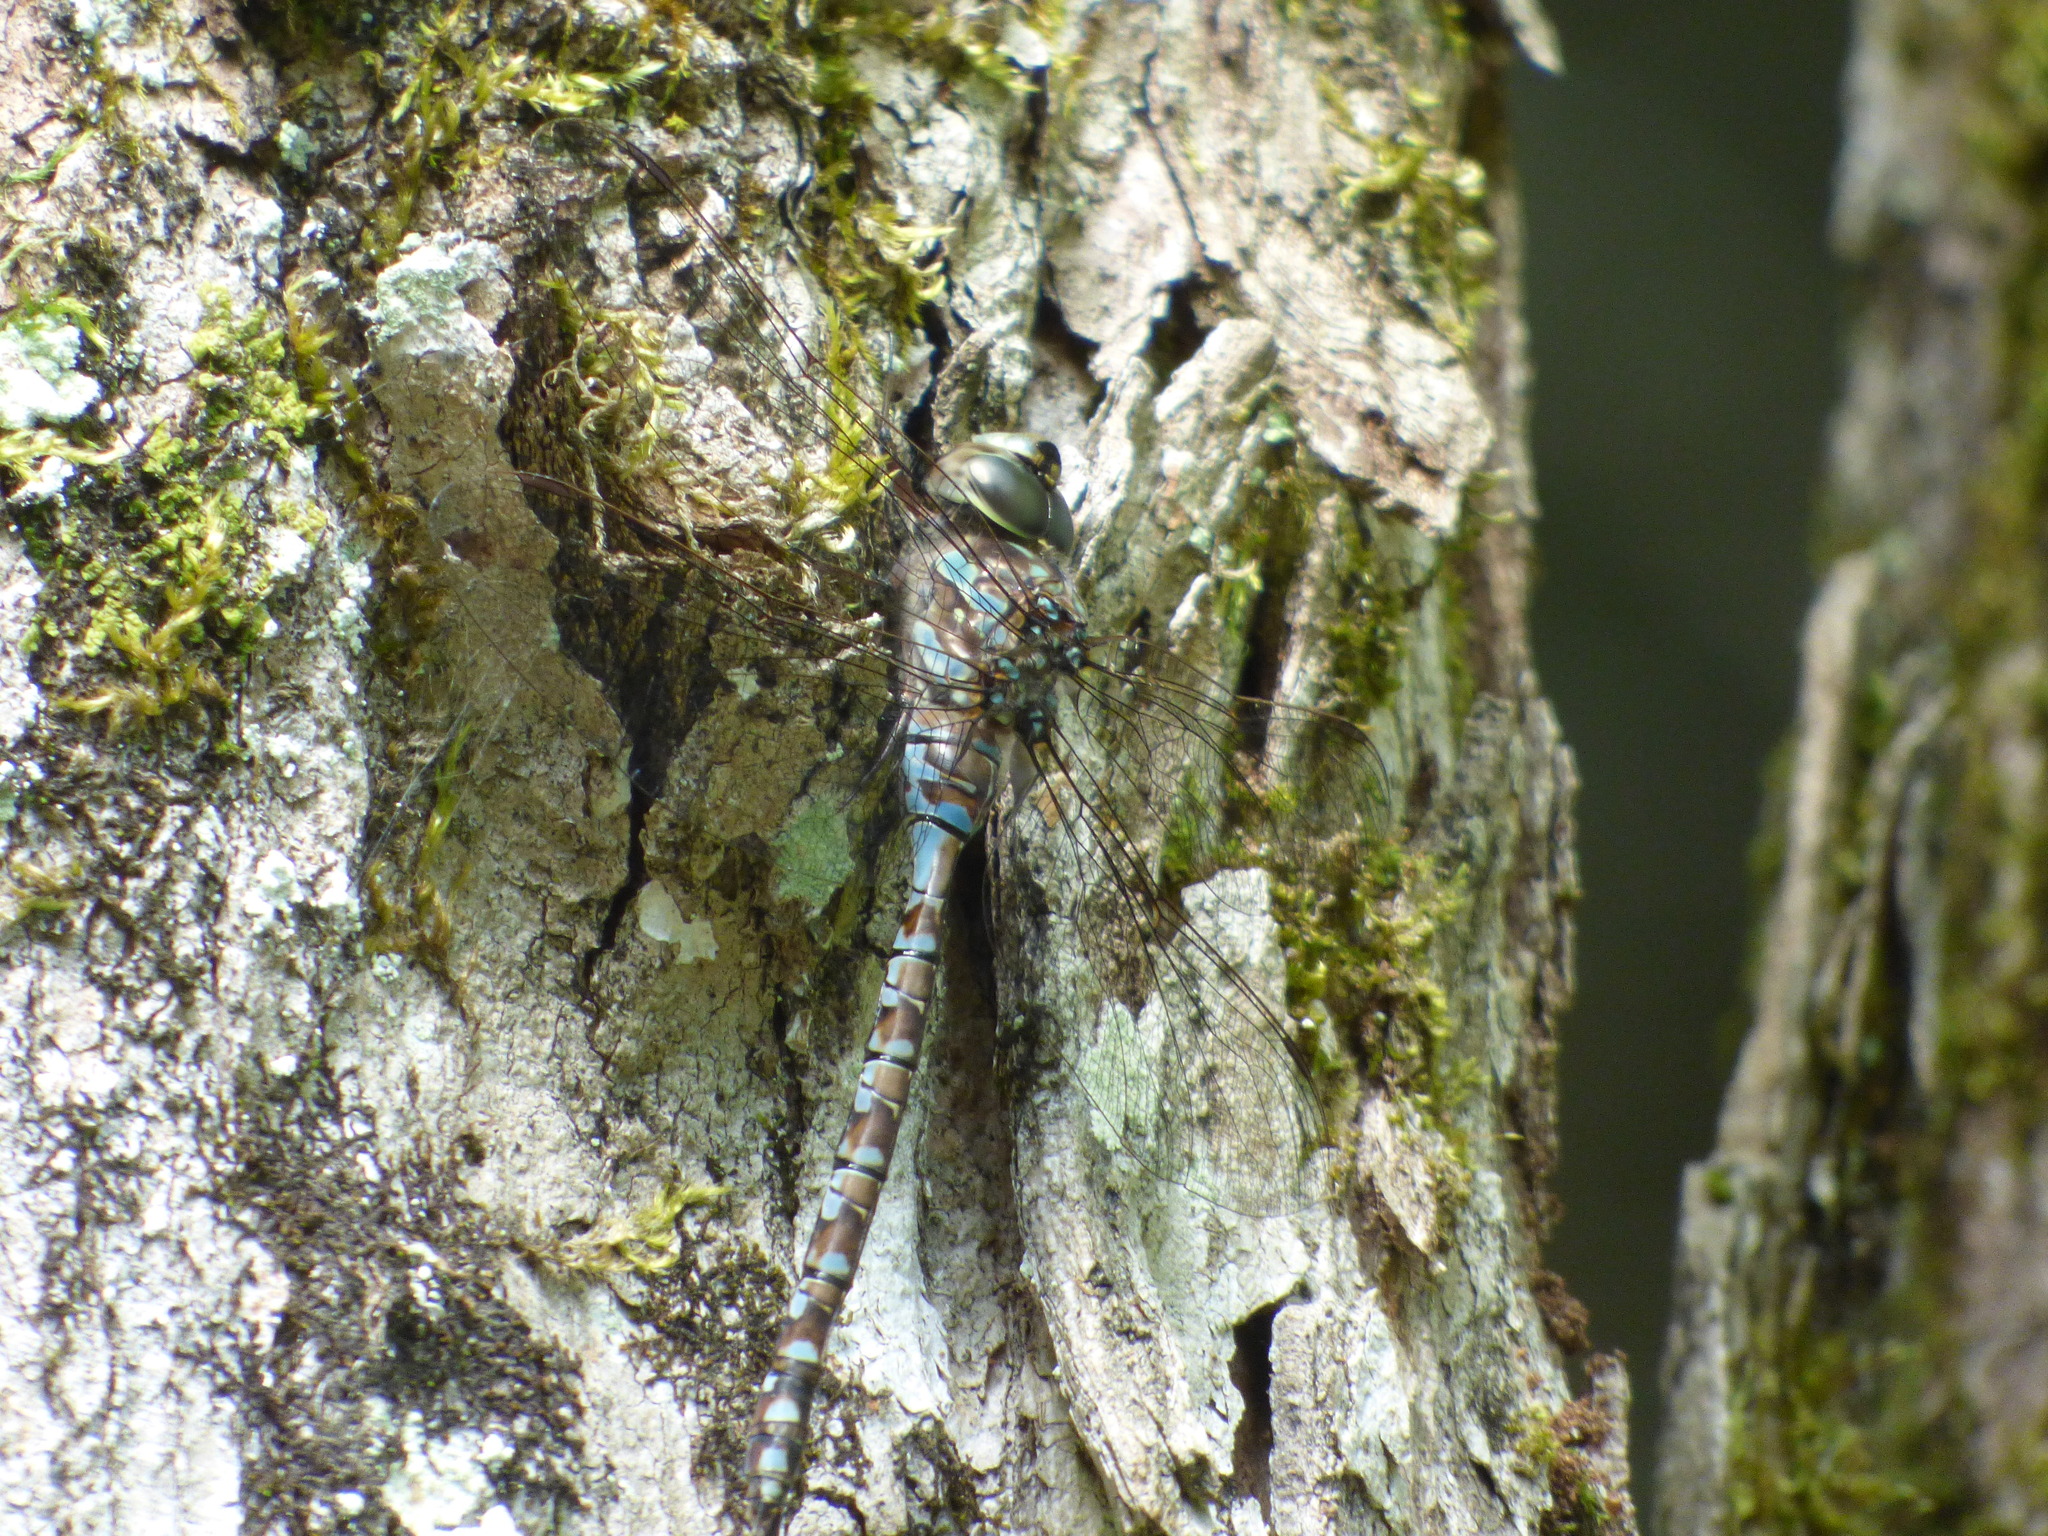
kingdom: Animalia
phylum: Arthropoda
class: Insecta
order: Odonata
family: Aeshnidae
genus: Aeshna
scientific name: Aeshna canadensis
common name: Canada darner
